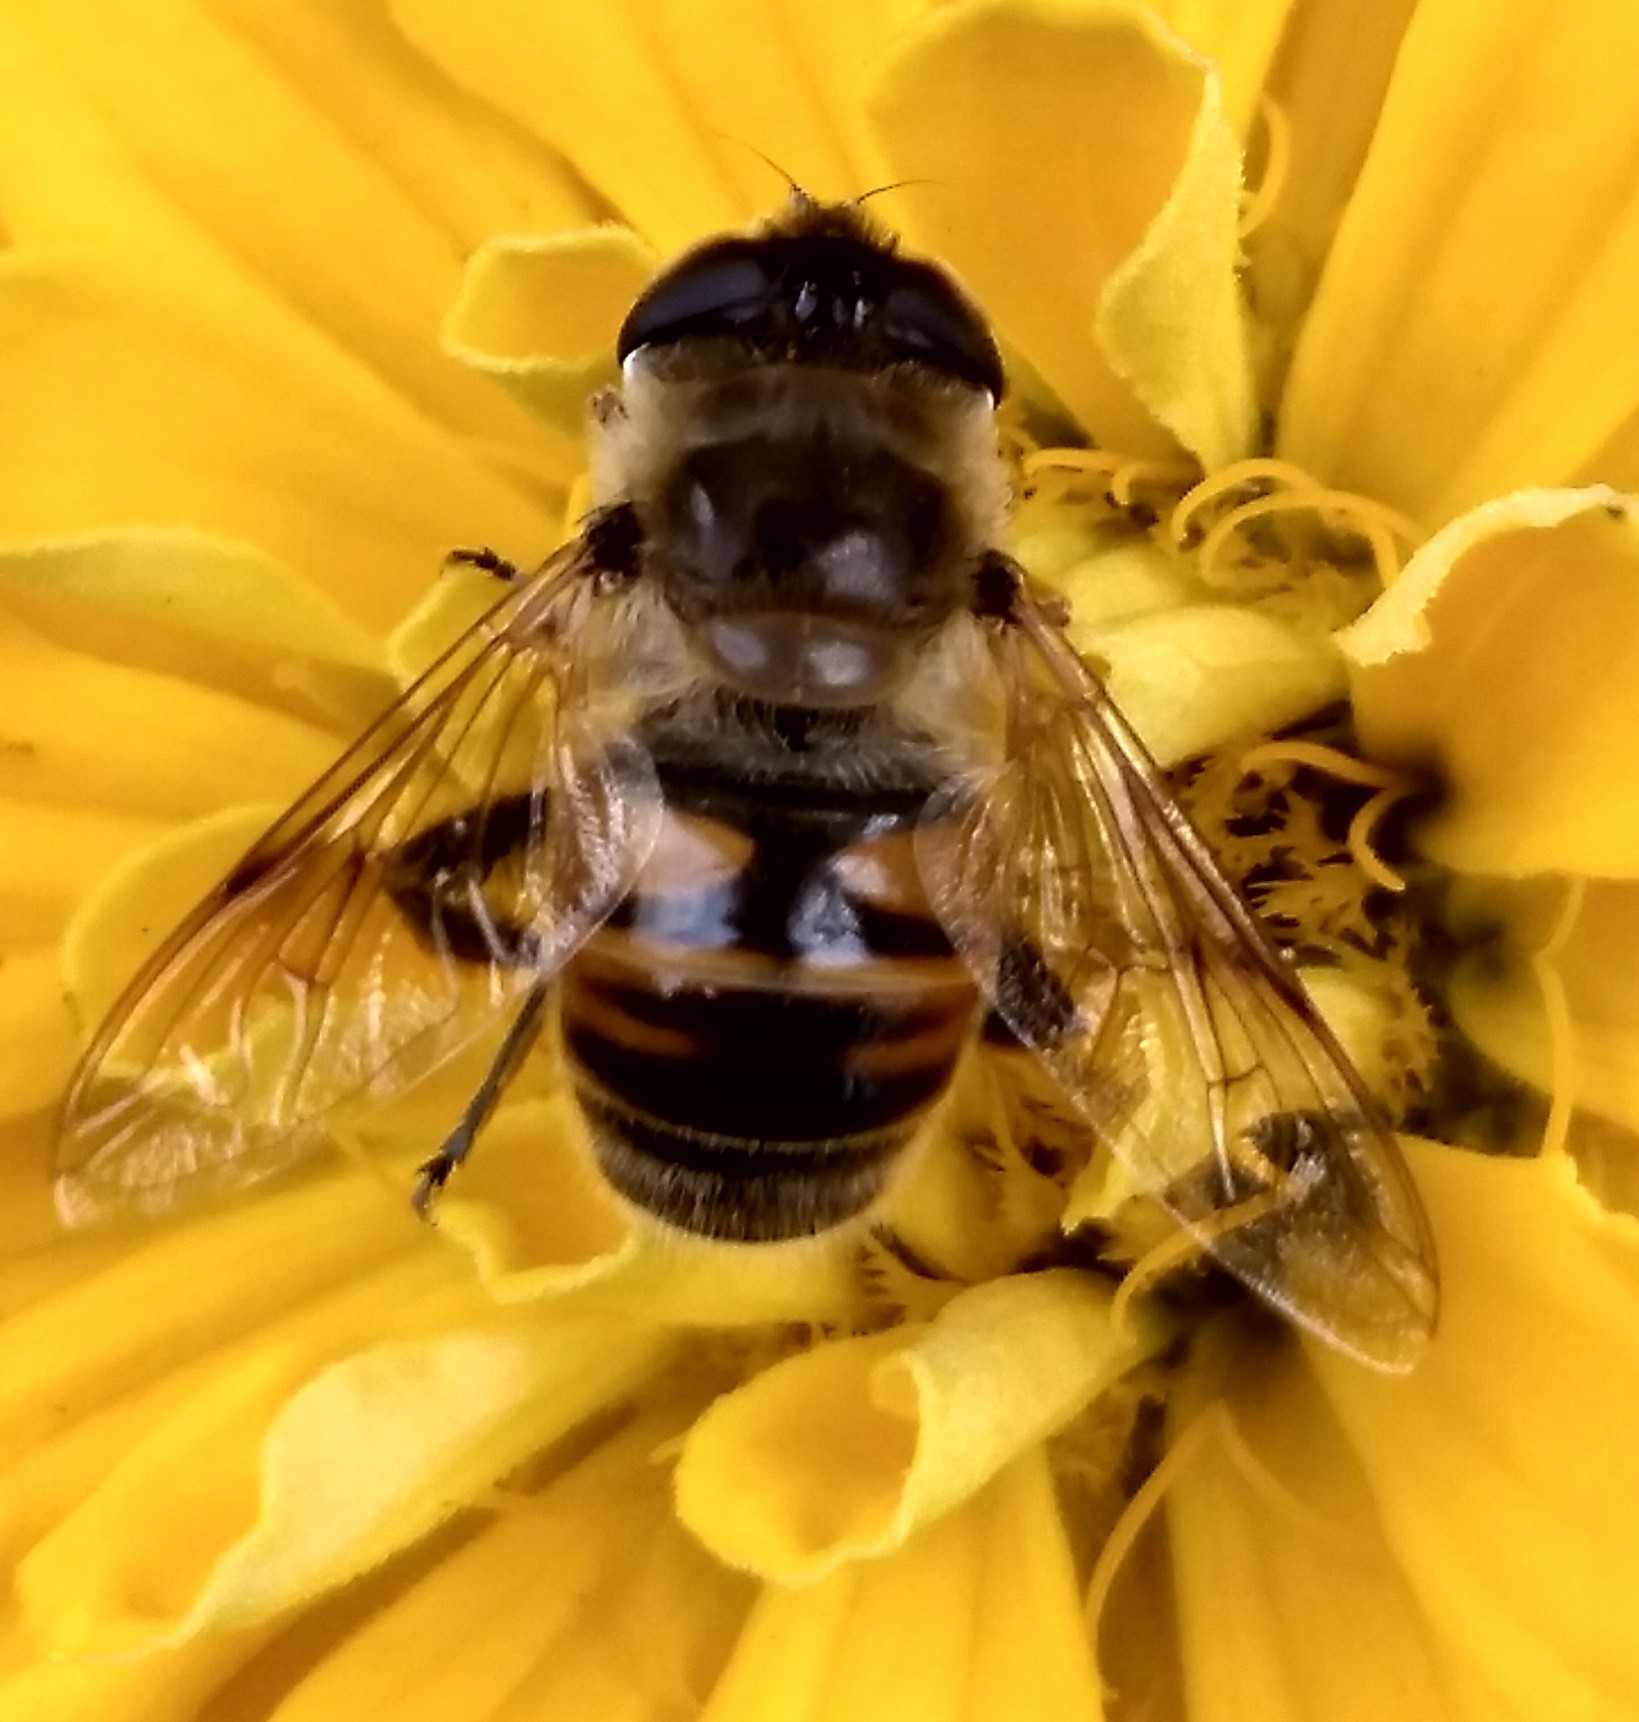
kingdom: Animalia
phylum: Arthropoda
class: Insecta
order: Diptera
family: Syrphidae
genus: Eristalis
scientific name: Eristalis tenax
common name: Drone fly
